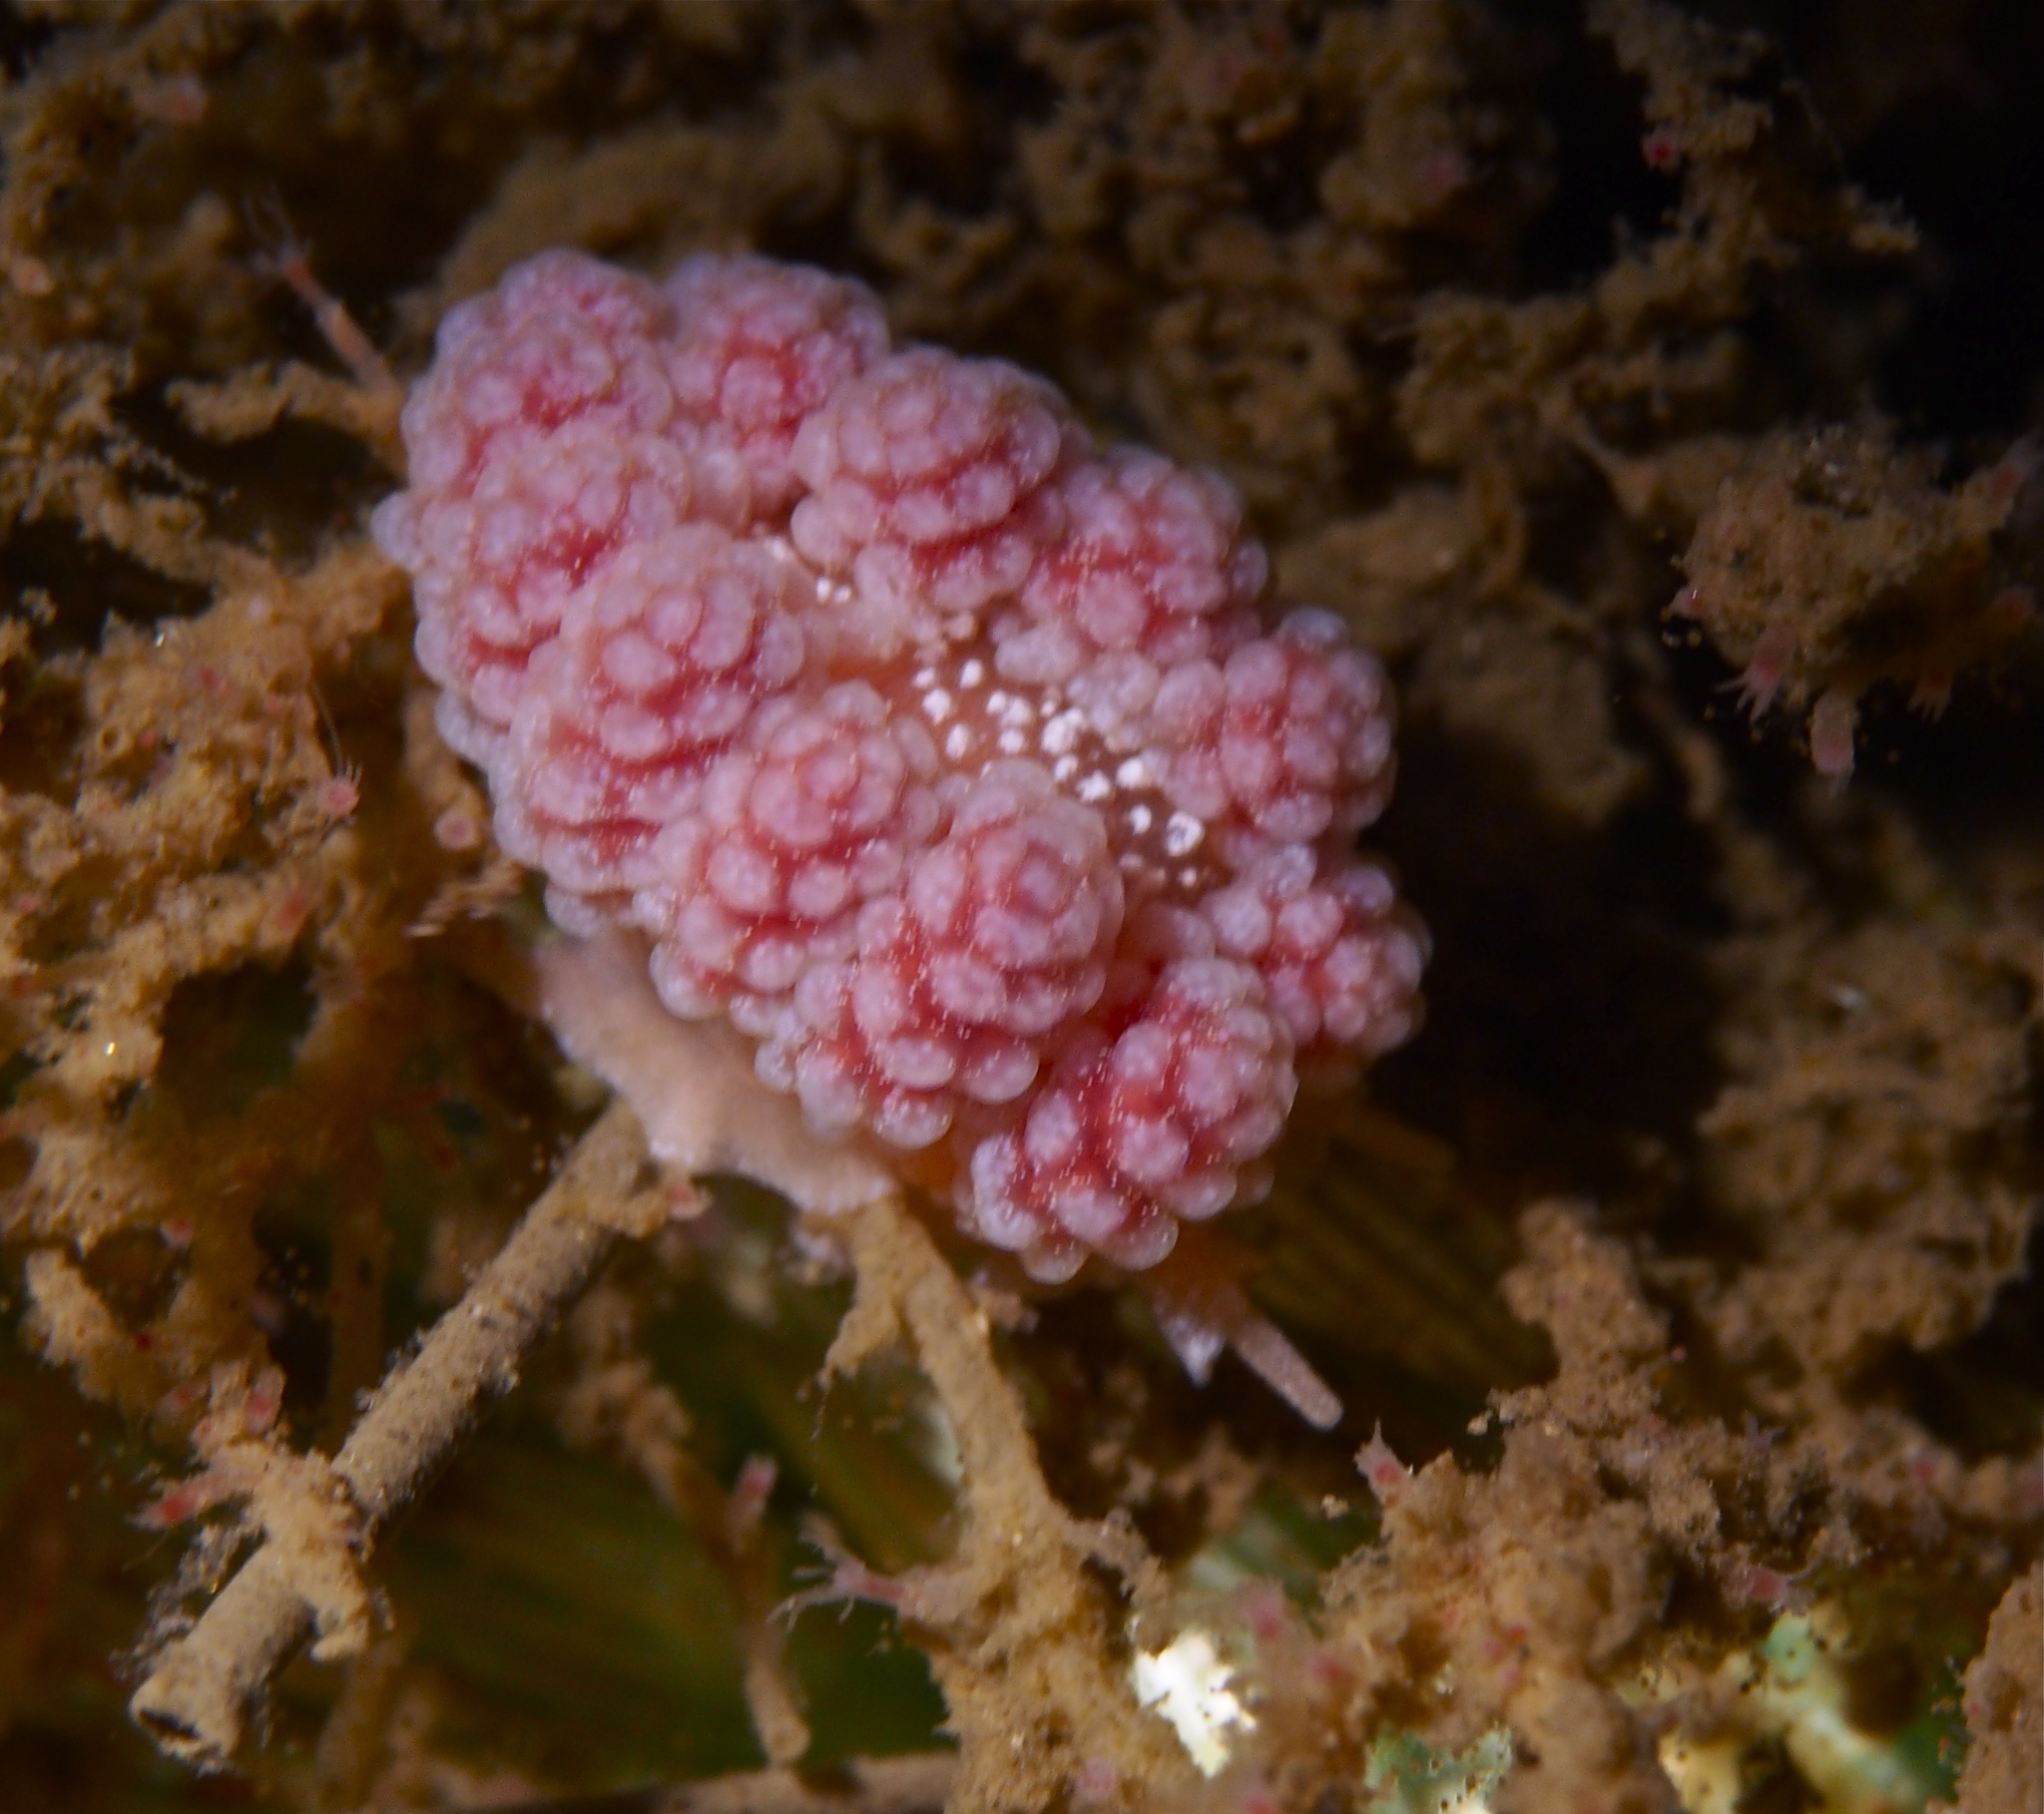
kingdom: Animalia
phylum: Mollusca
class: Gastropoda
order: Nudibranchia
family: Dotidae
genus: Doto
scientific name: Doto fragilis
